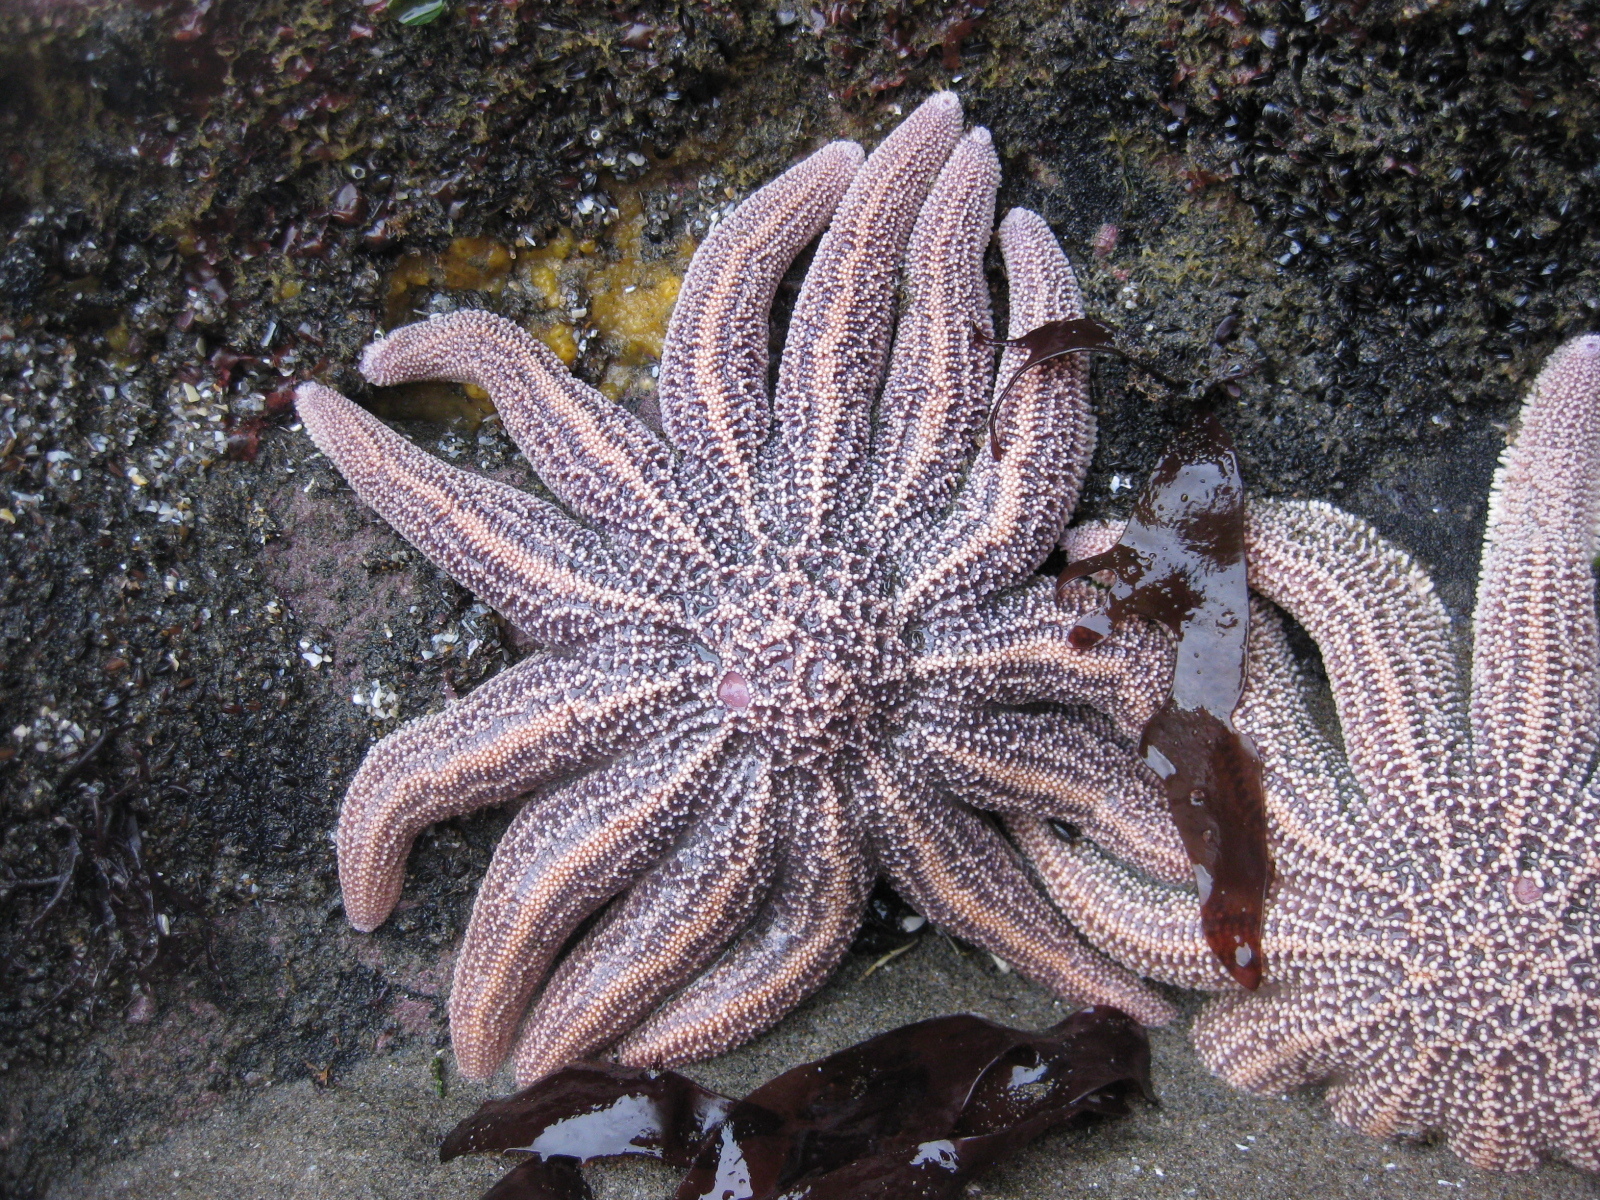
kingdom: Animalia
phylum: Echinodermata
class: Asteroidea
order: Forcipulatida
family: Stichasteridae
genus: Stichaster
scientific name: Stichaster australis
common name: Reef starfish
